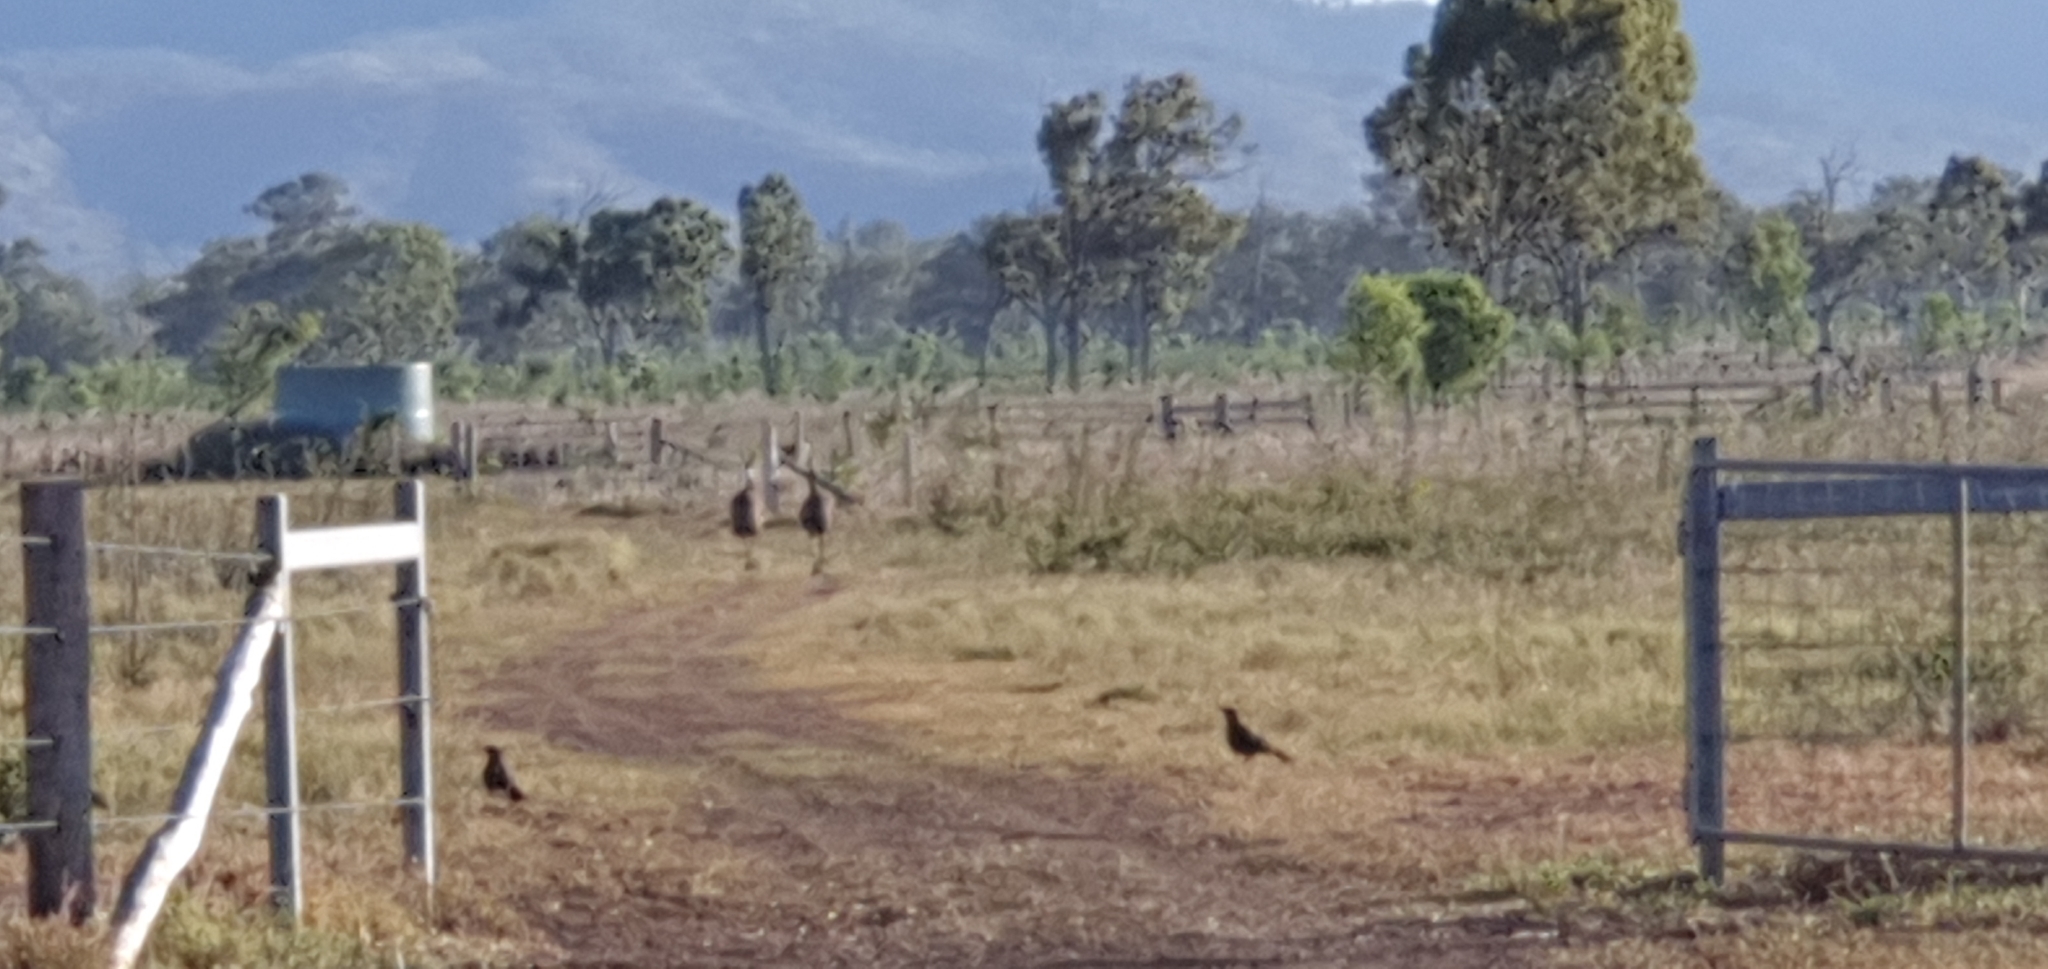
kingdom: Animalia
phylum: Chordata
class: Aves
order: Casuariiformes
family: Dromaiidae
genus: Dromaius
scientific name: Dromaius novaehollandiae
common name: Emu
